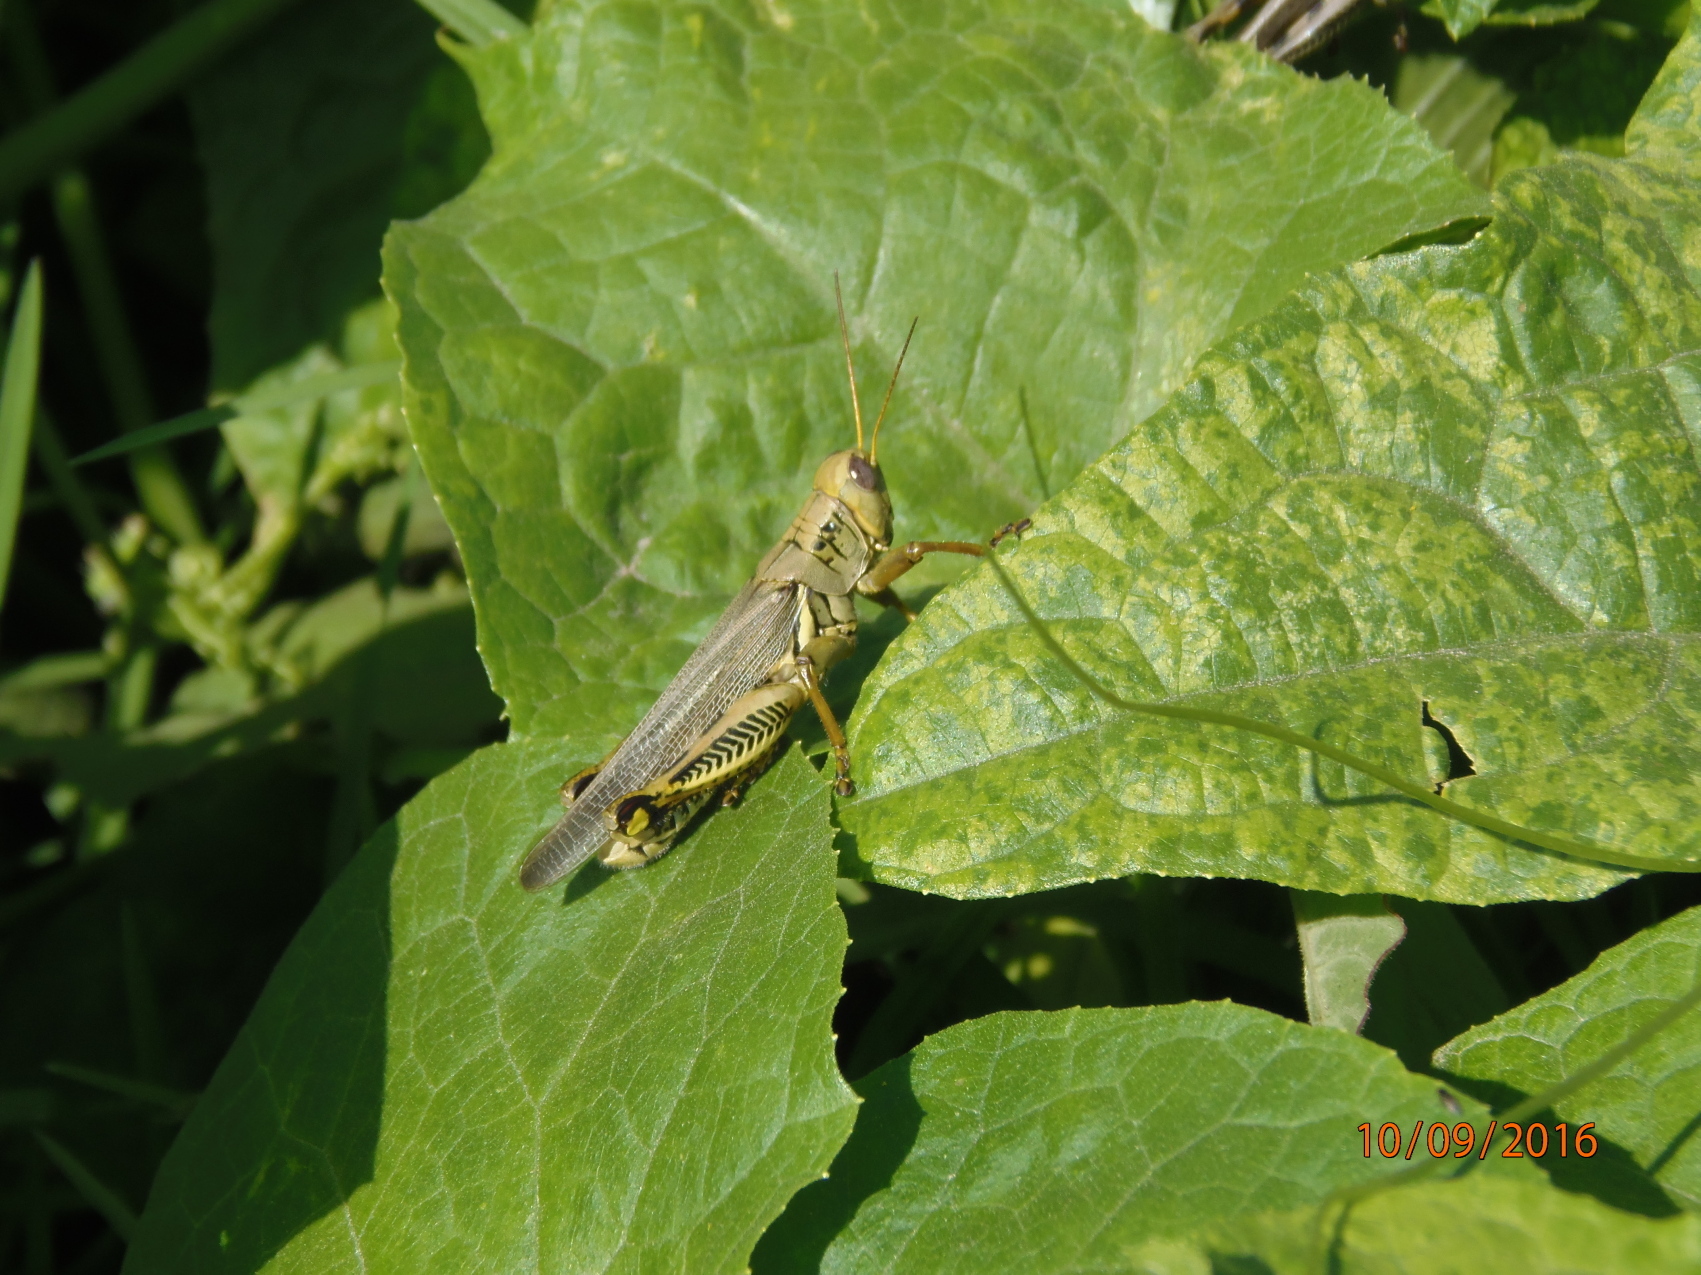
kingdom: Animalia
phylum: Arthropoda
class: Insecta
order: Orthoptera
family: Acrididae
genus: Melanoplus
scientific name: Melanoplus differentialis
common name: Differential grasshopper
